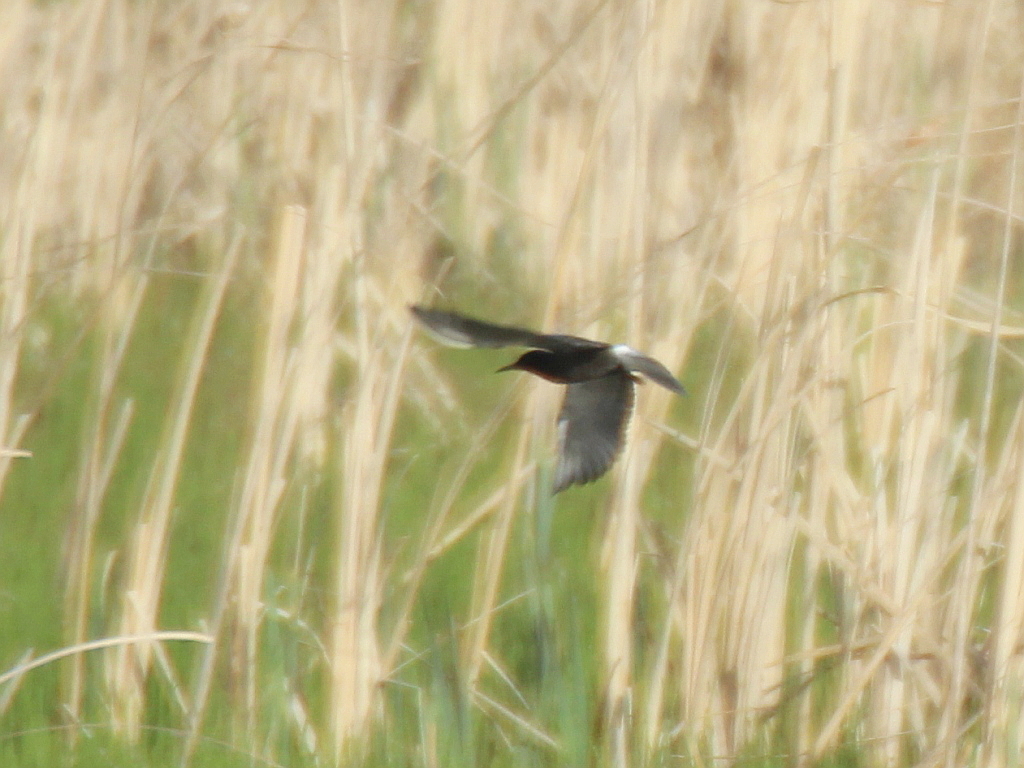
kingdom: Animalia
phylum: Chordata
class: Aves
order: Charadriiformes
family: Laridae
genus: Chlidonias
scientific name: Chlidonias niger
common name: Black tern
